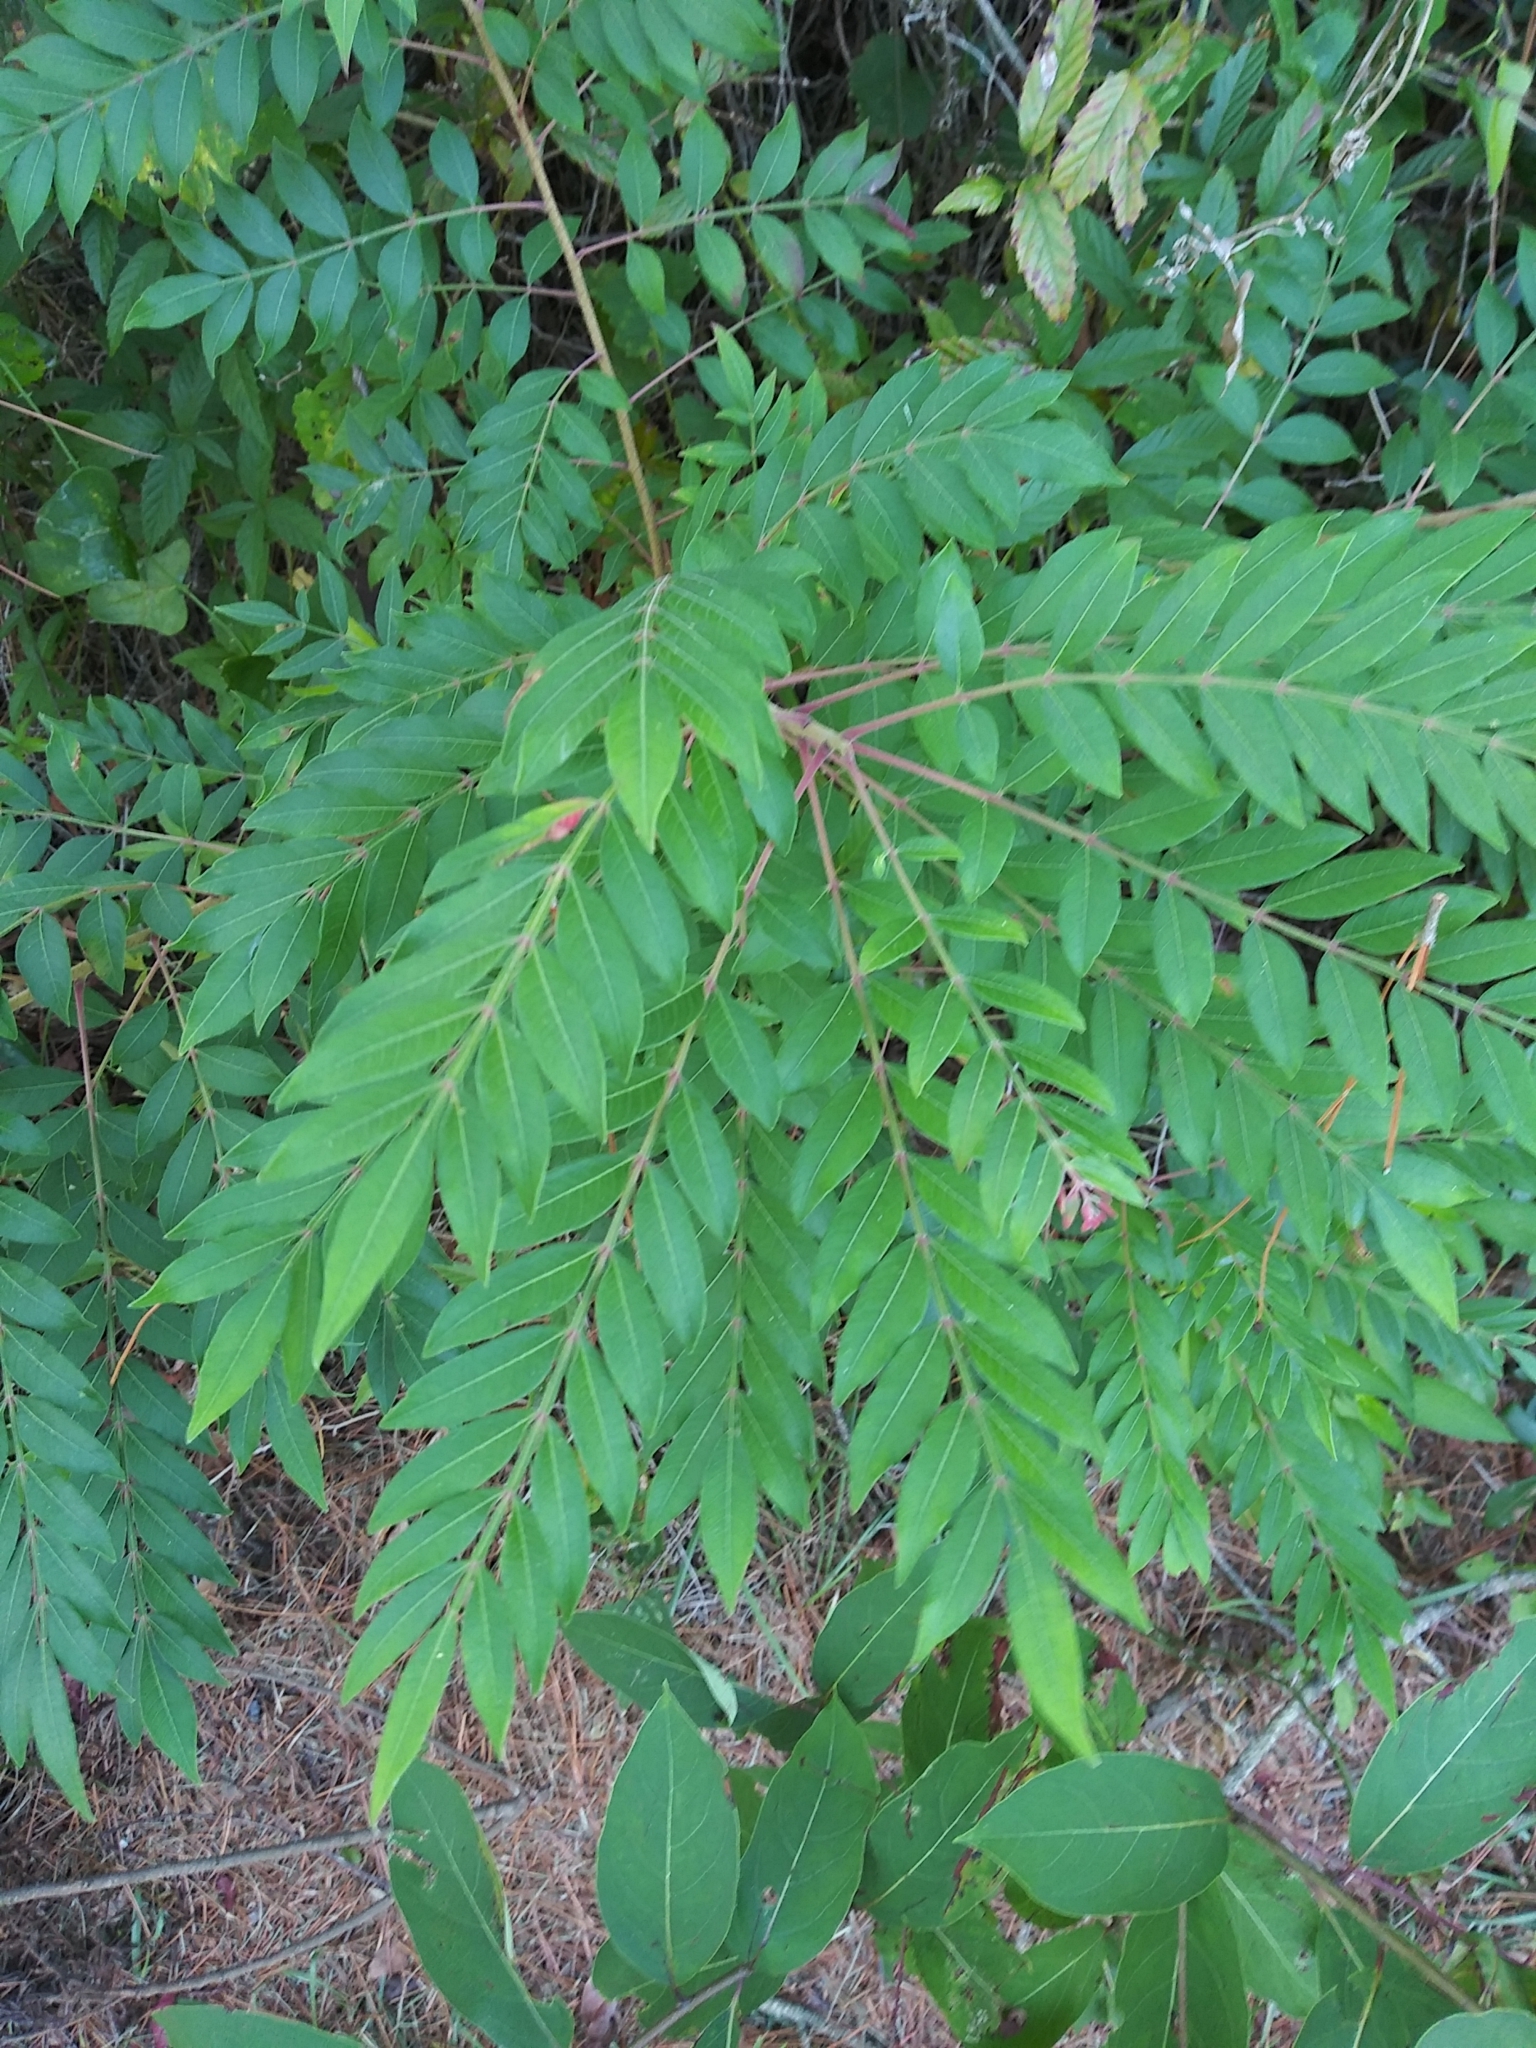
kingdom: Plantae
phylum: Tracheophyta
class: Magnoliopsida
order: Sapindales
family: Anacardiaceae
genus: Rhus
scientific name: Rhus copallina
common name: Shining sumac
